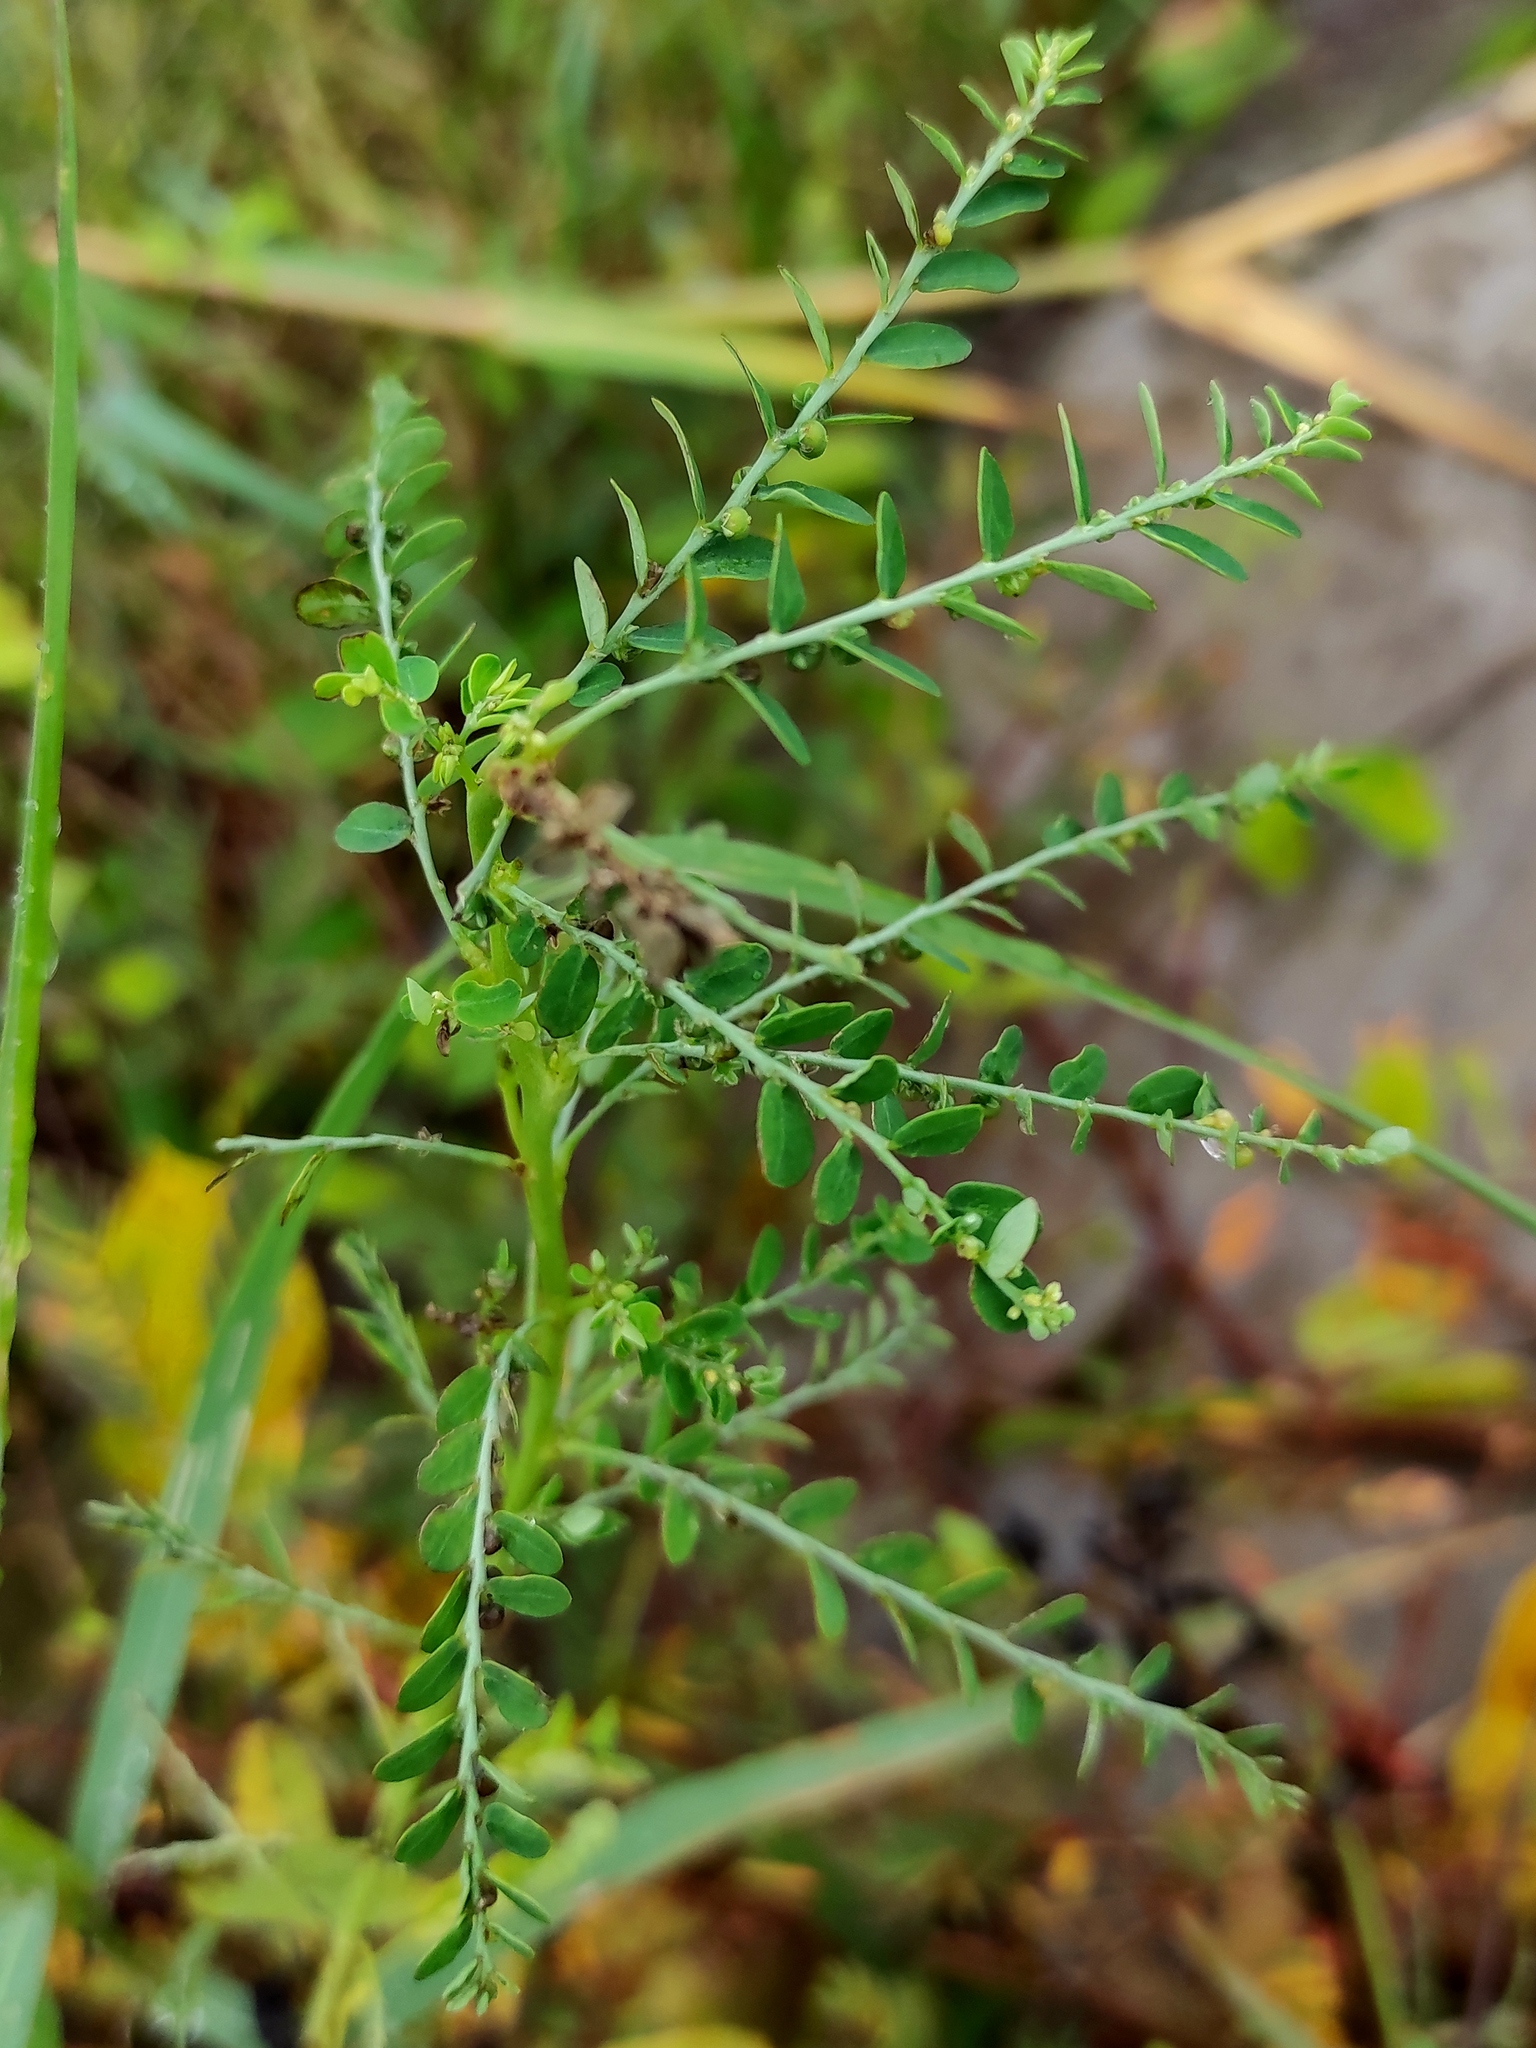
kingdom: Plantae
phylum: Tracheophyta
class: Magnoliopsida
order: Malpighiales
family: Phyllanthaceae
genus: Phyllanthus
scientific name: Phyllanthus amarus
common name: Carry me seed
